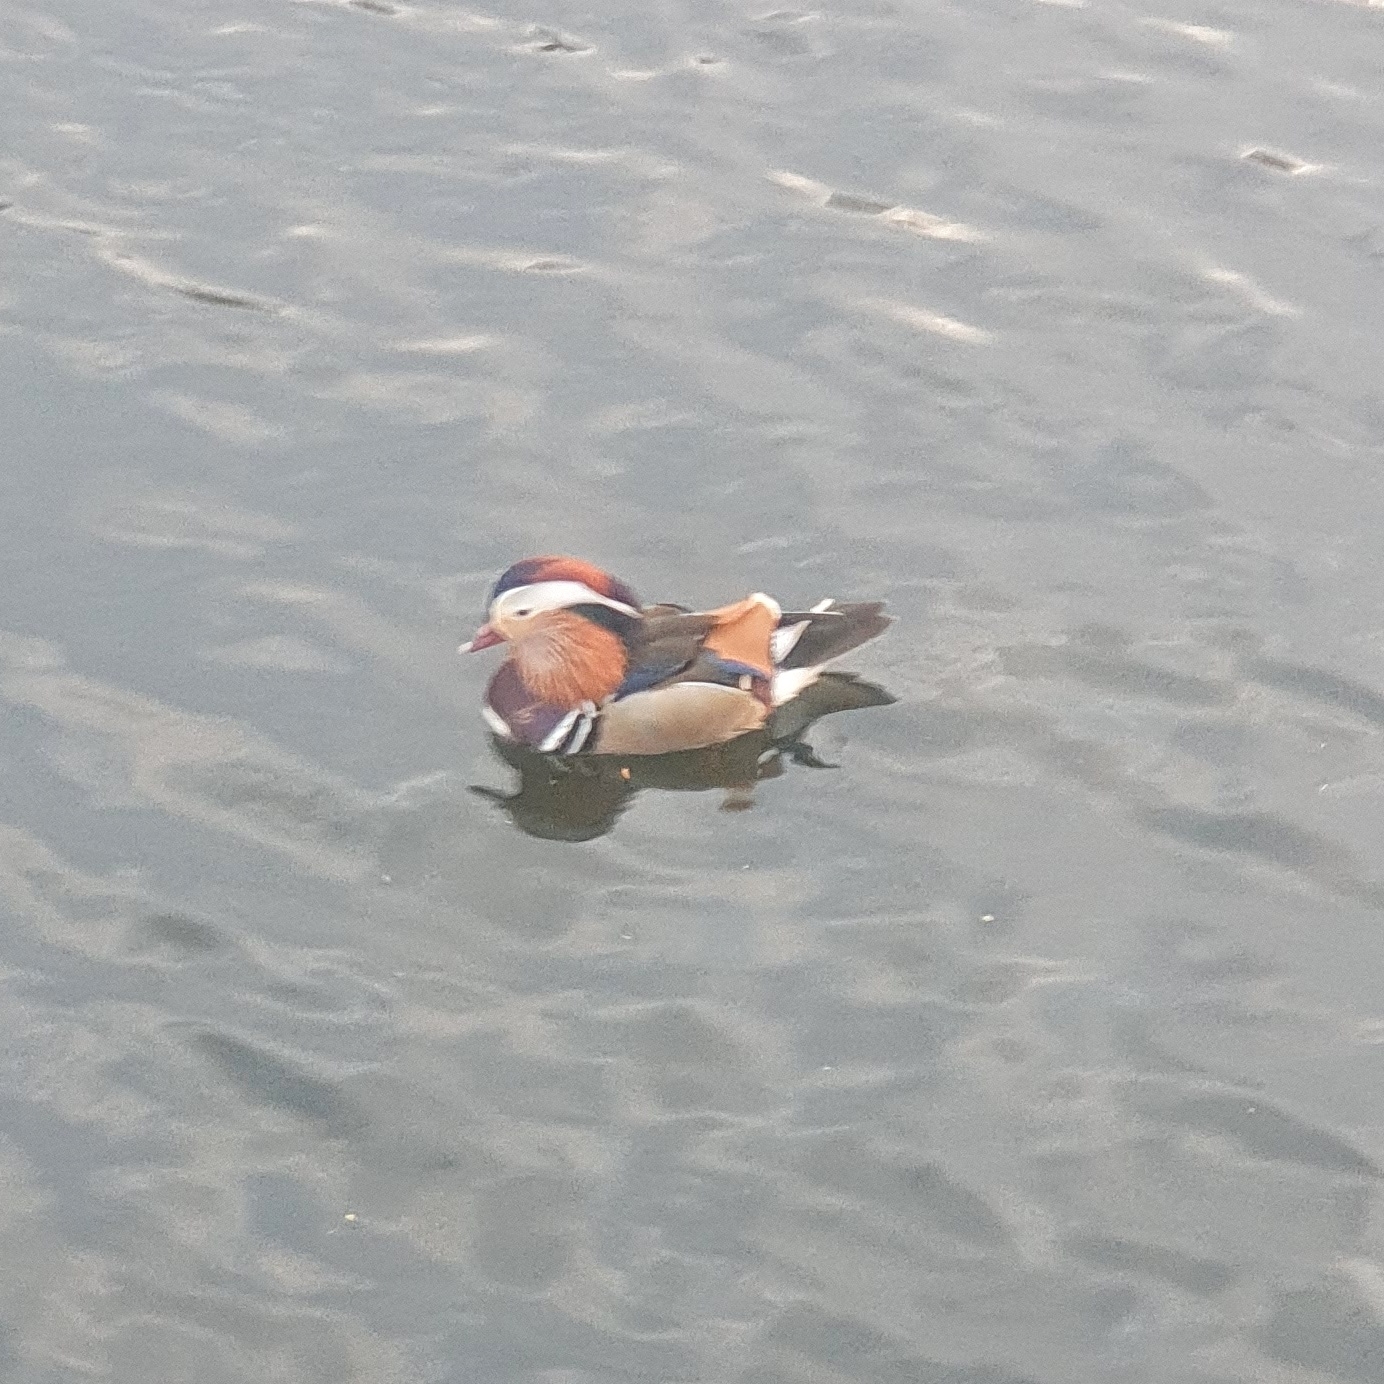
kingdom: Animalia
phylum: Chordata
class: Aves
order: Anseriformes
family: Anatidae
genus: Aix
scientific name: Aix galericulata
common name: Mandarin duck
